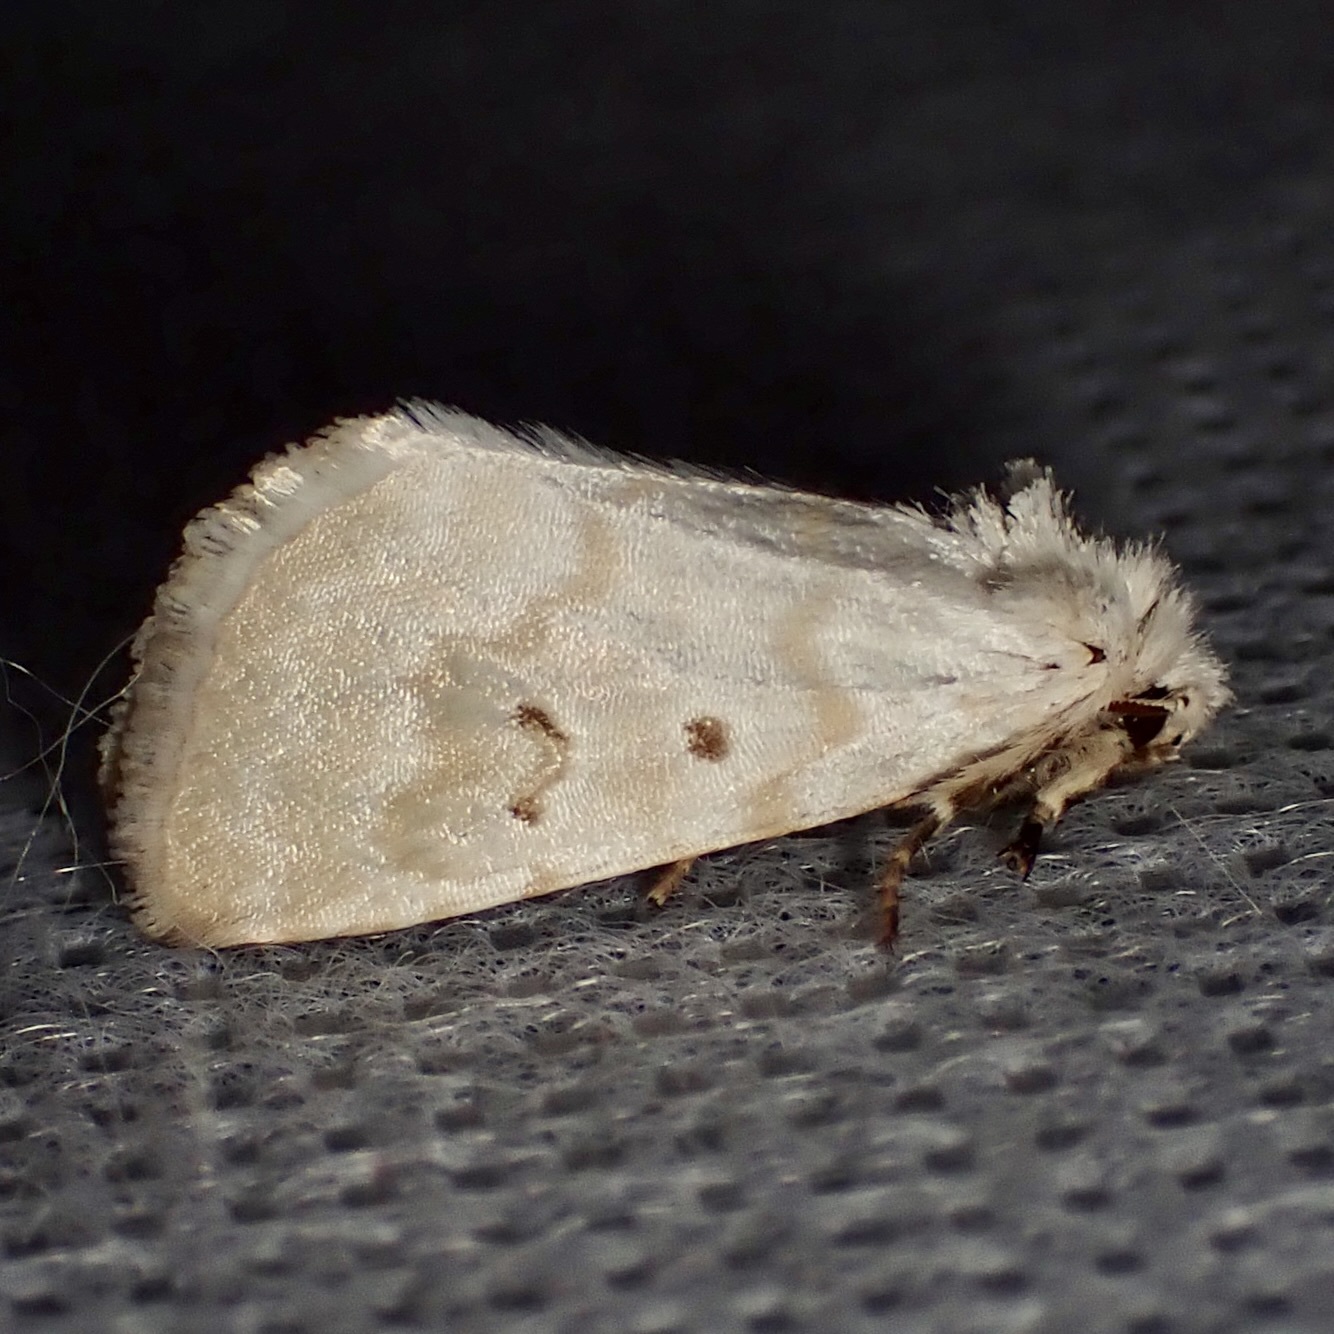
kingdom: Animalia
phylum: Arthropoda
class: Insecta
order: Lepidoptera
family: Noctuidae
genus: Lythrodes
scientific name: Lythrodes tripuncta
